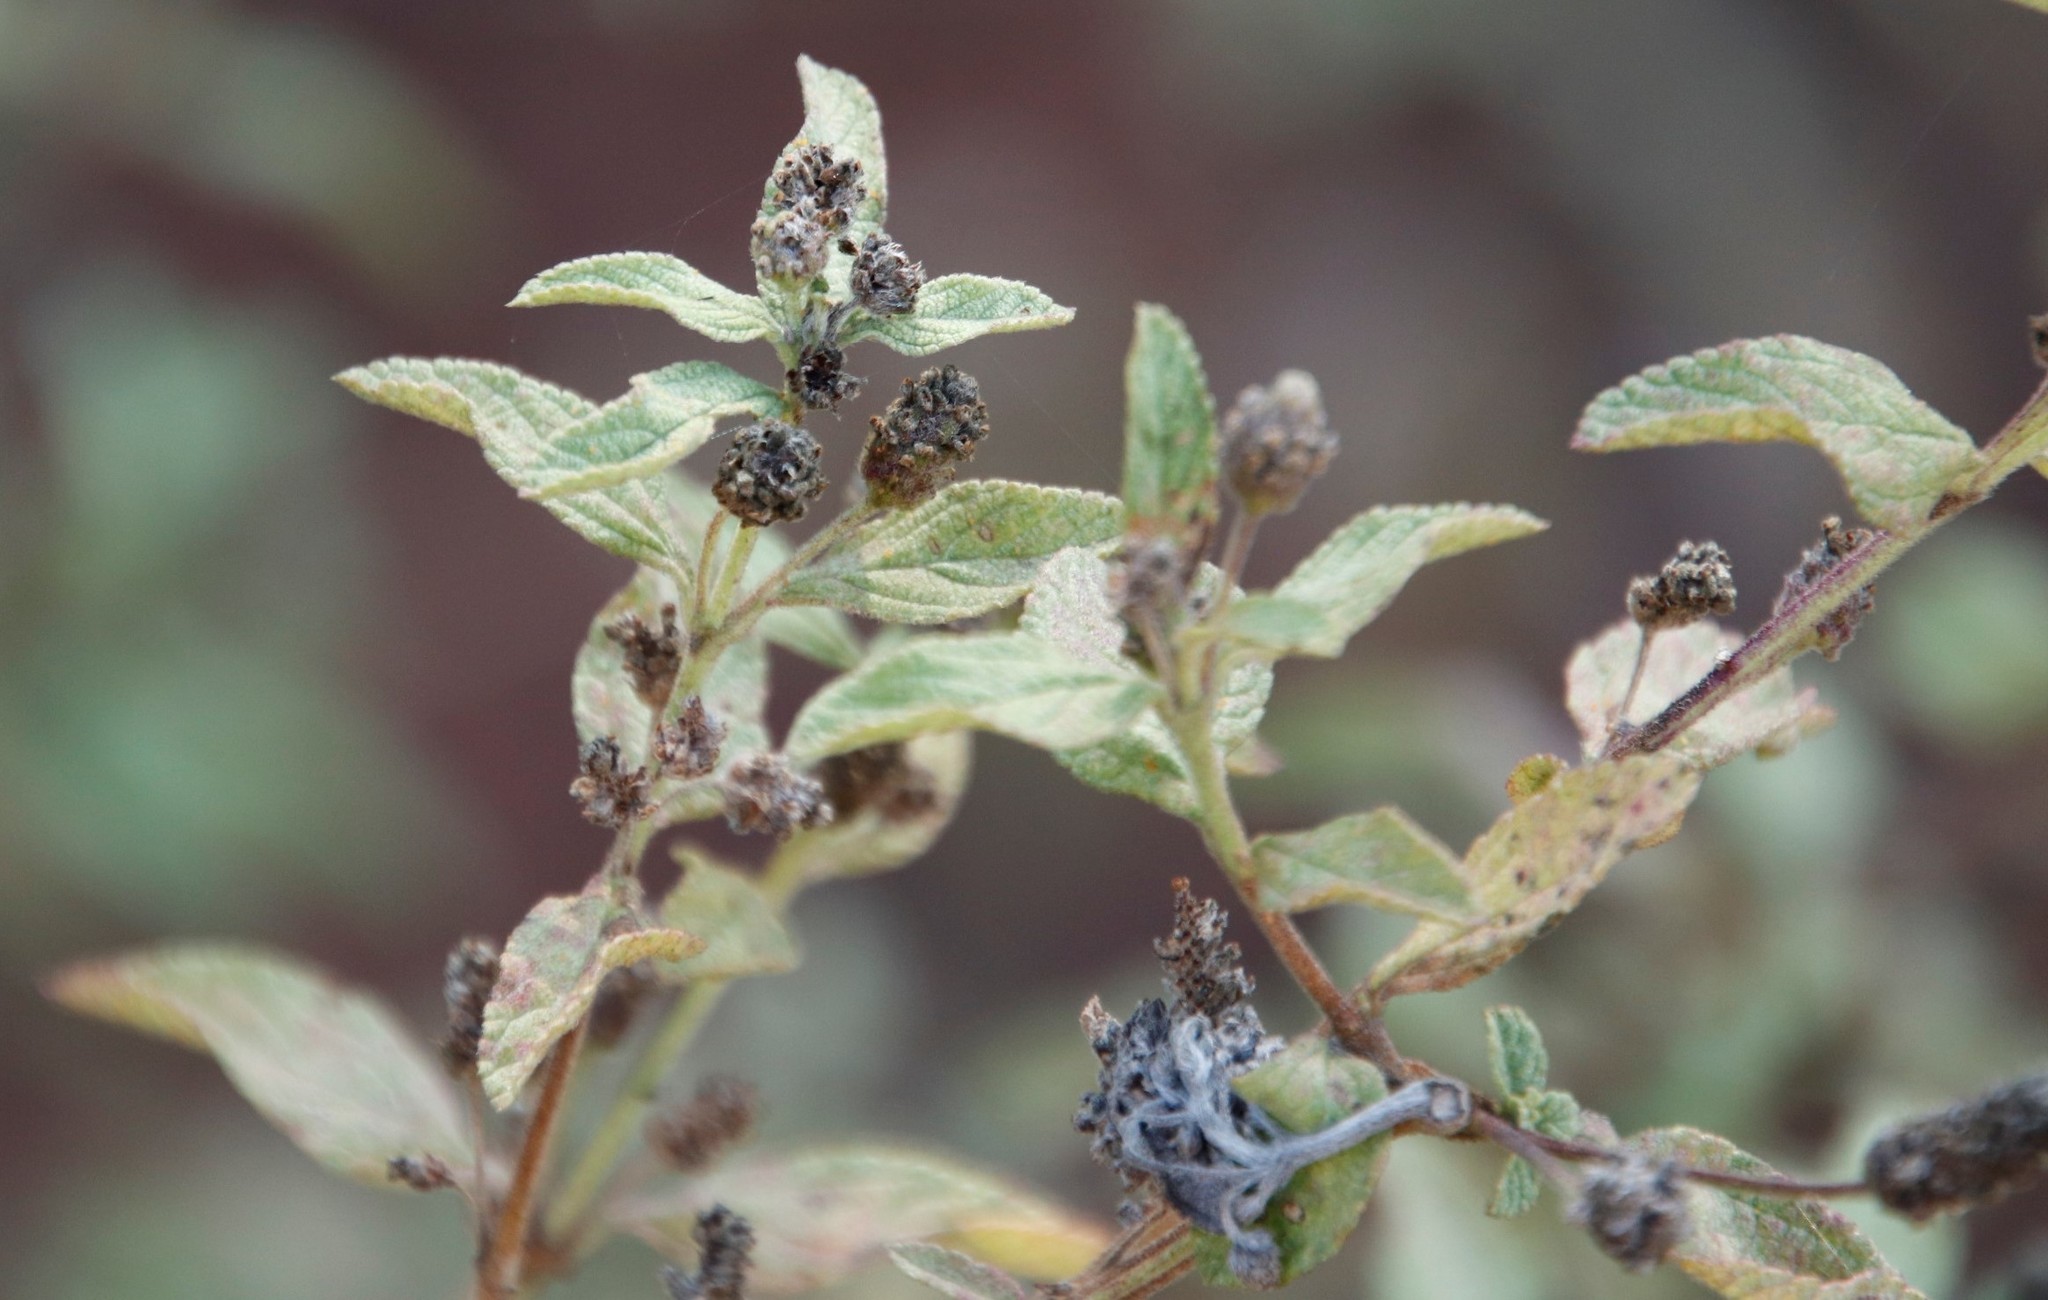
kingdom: Plantae
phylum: Tracheophyta
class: Magnoliopsida
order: Lamiales
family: Verbenaceae
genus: Lippia
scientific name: Lippia javanica
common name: Lemonbush
